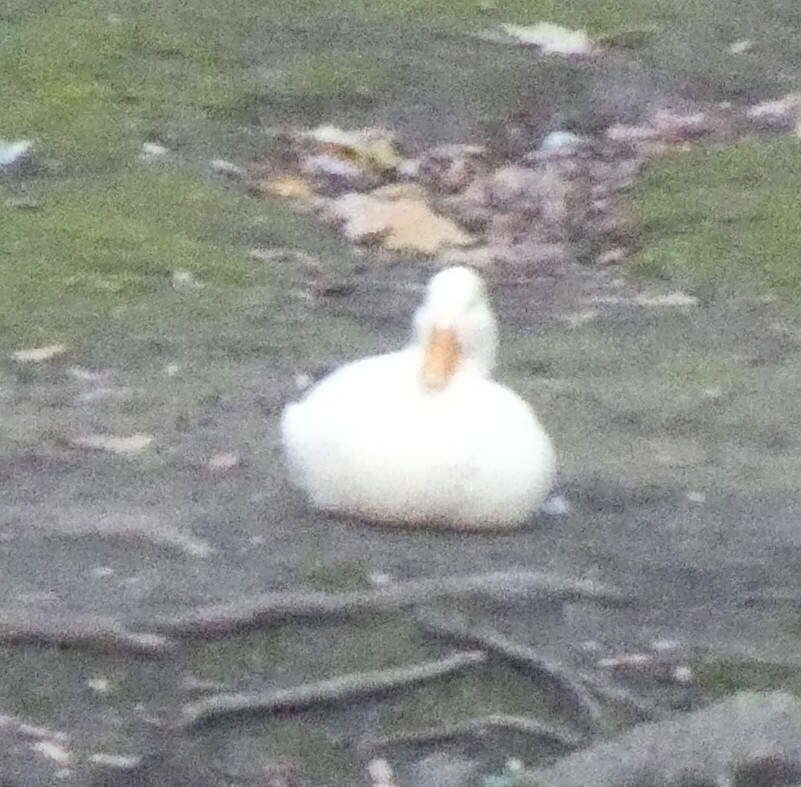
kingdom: Animalia
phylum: Chordata
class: Aves
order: Anseriformes
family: Anatidae
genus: Anas
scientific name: Anas platyrhynchos
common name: Mallard
